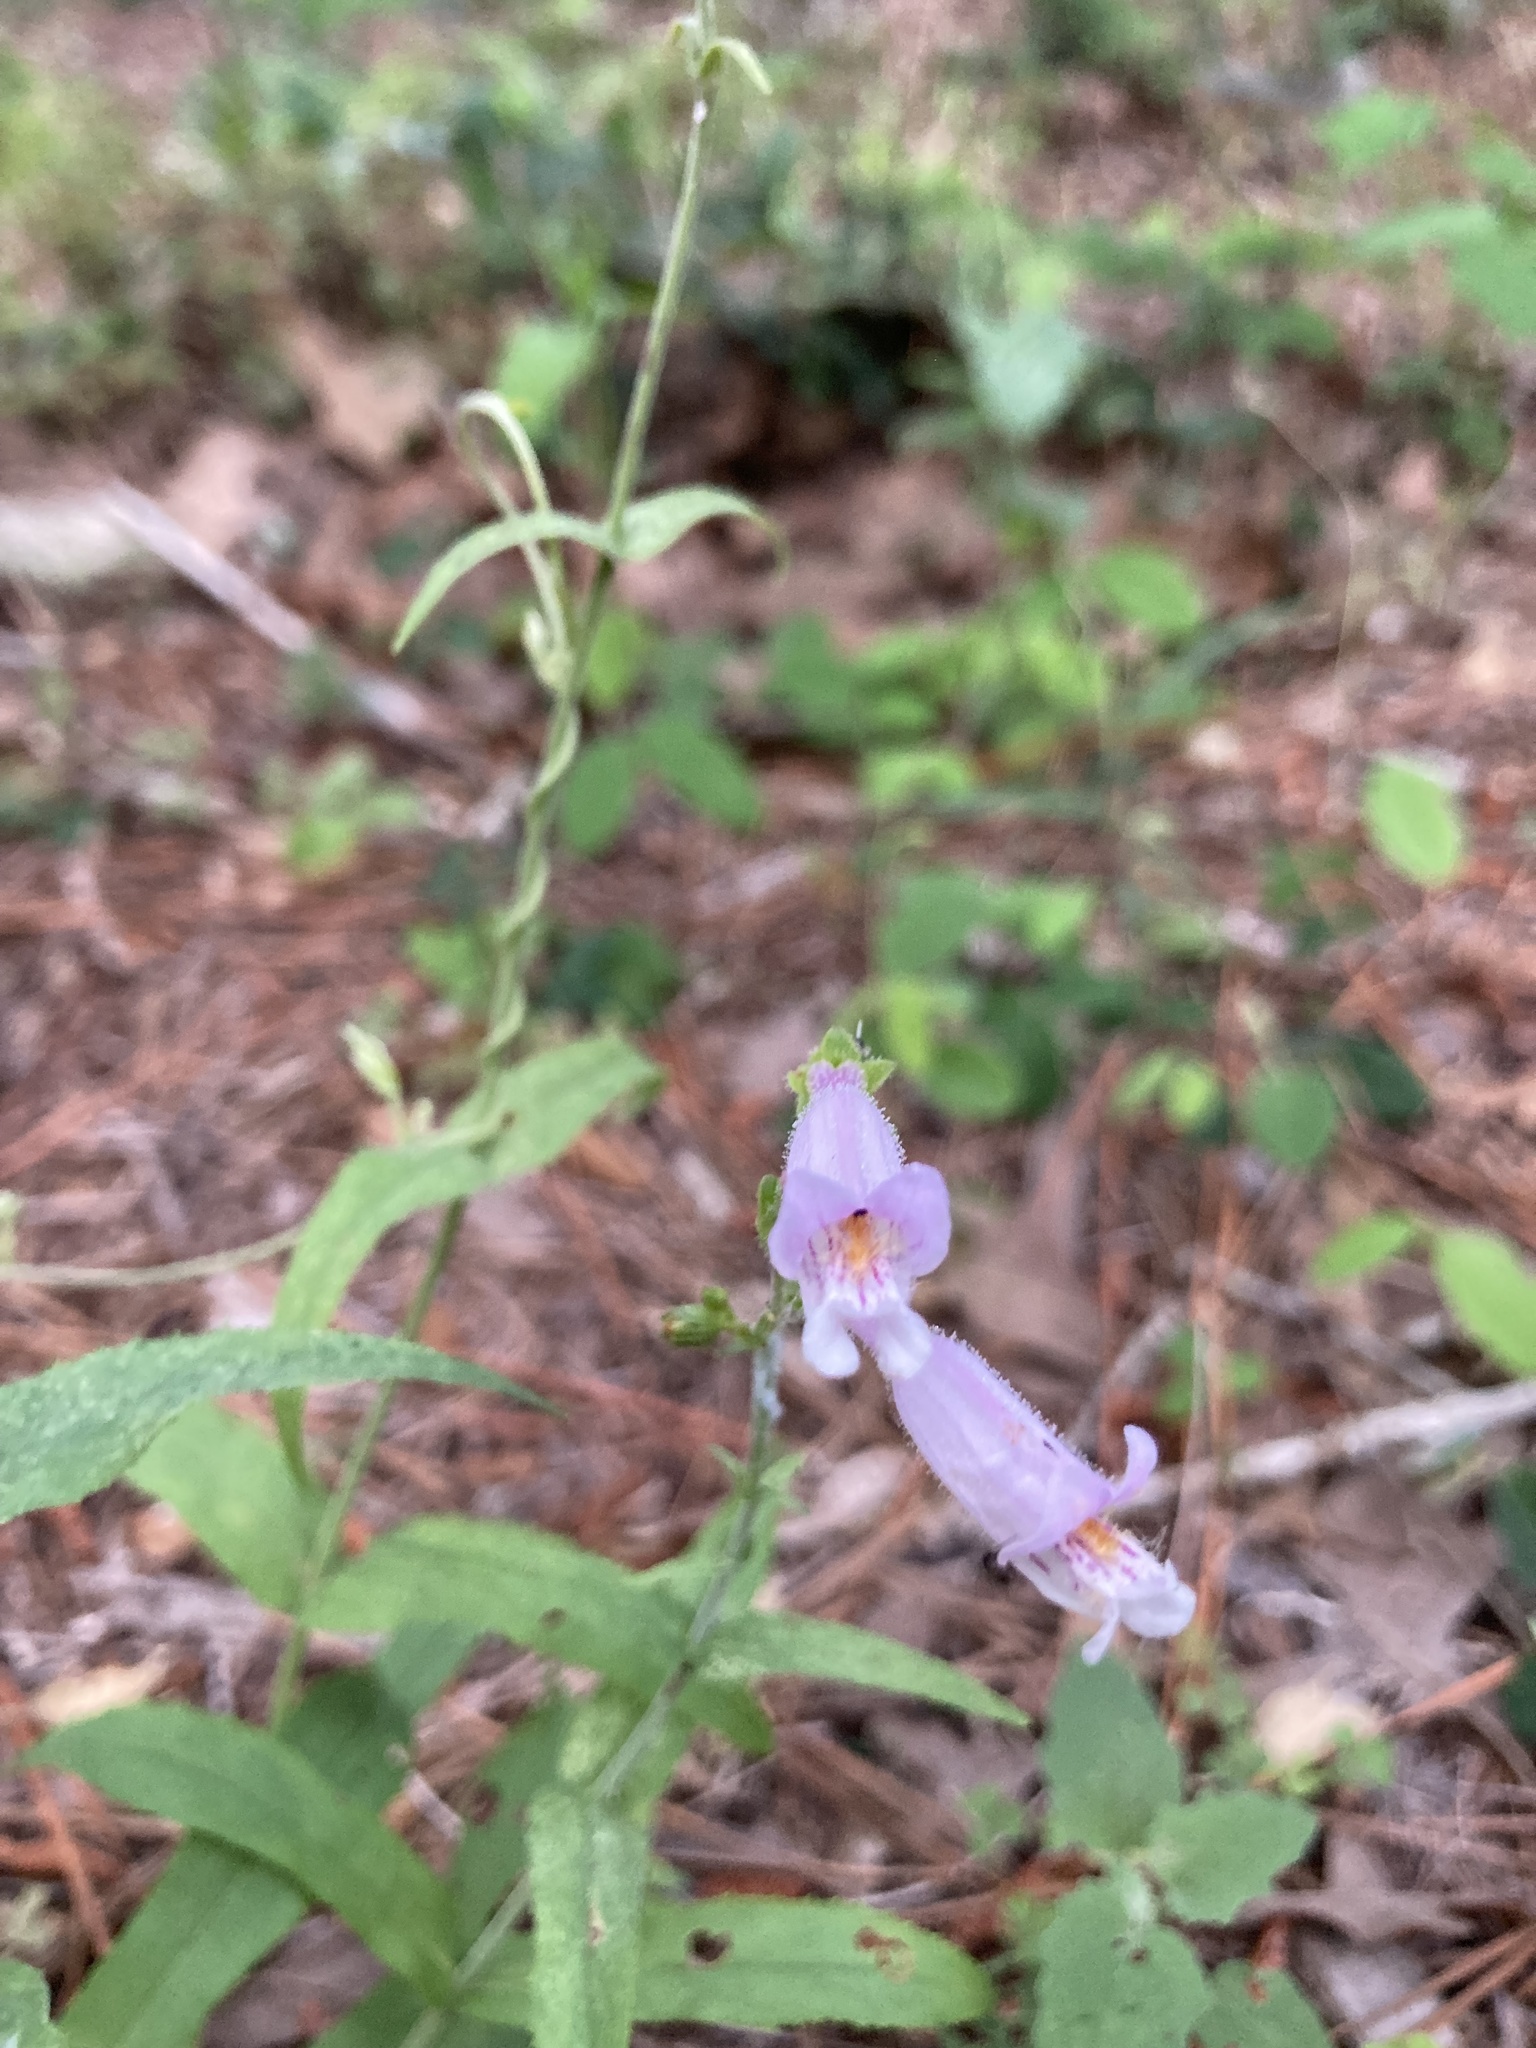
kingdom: Plantae
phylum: Tracheophyta
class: Magnoliopsida
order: Lamiales
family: Plantaginaceae
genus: Penstemon
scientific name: Penstemon laxiflorus
